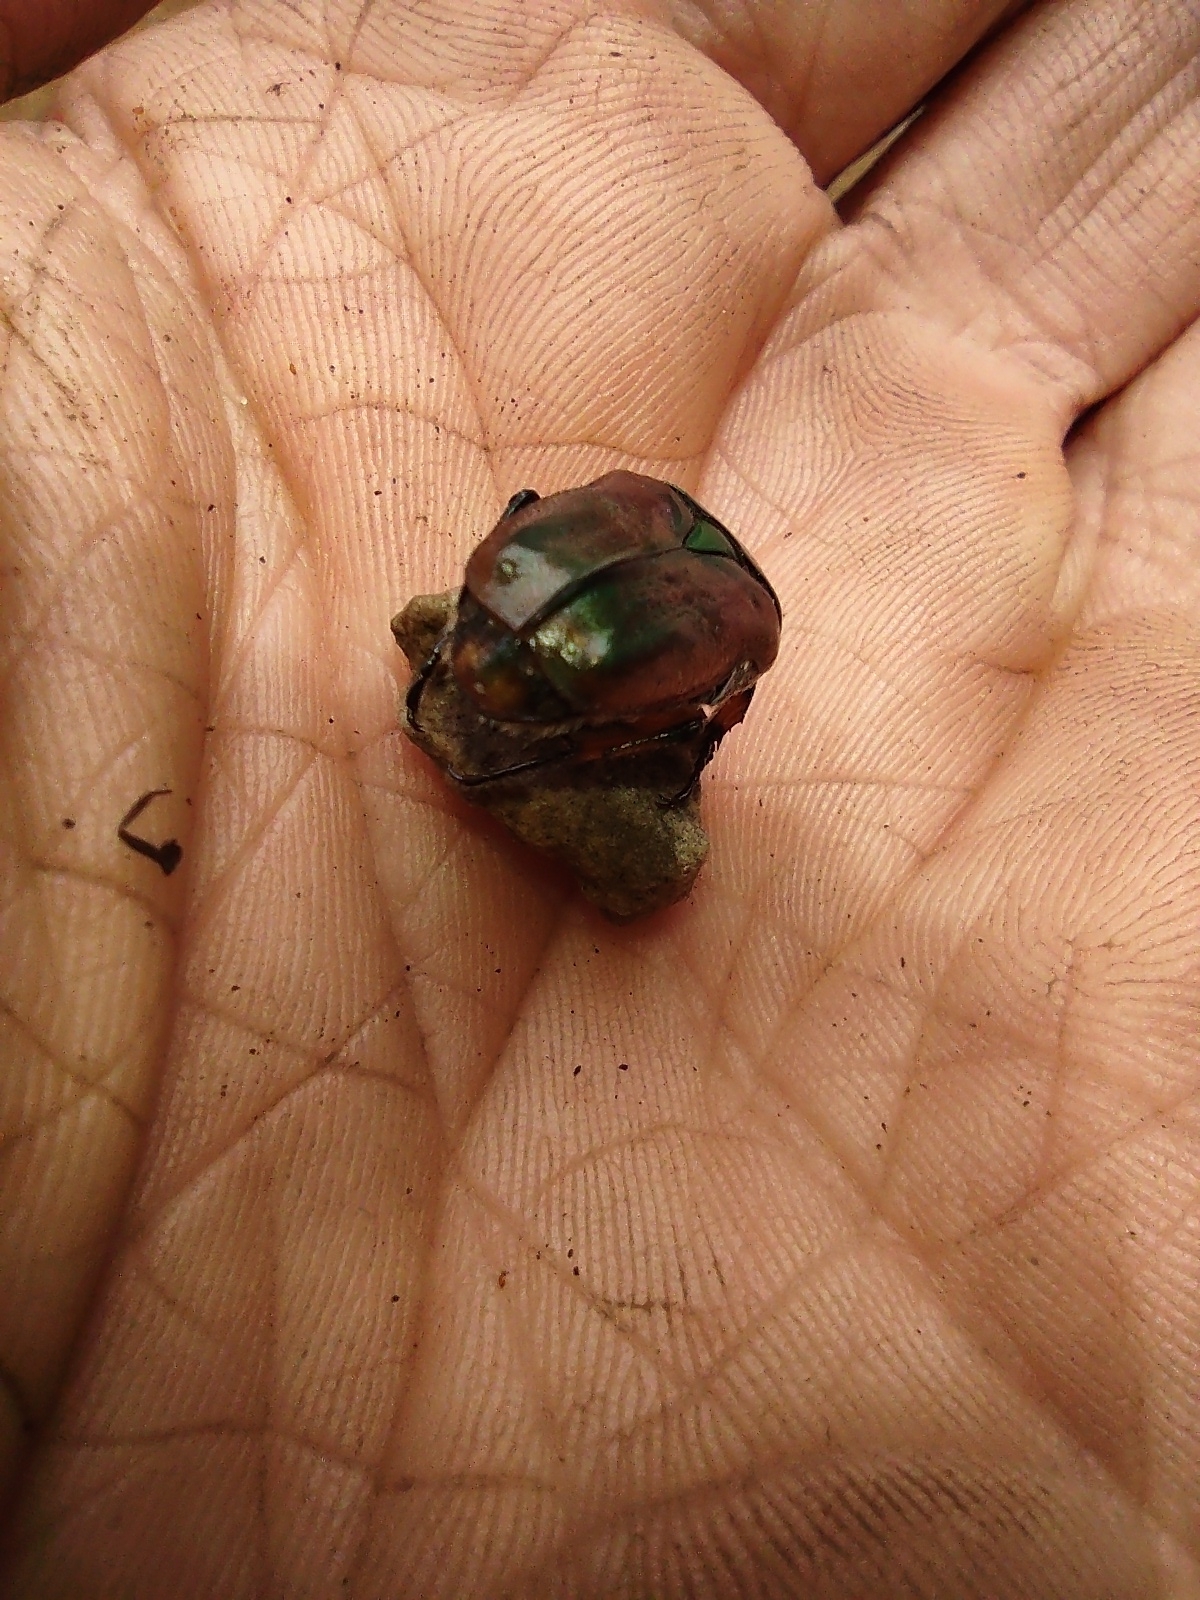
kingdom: Animalia
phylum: Arthropoda
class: Insecta
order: Coleoptera
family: Scarabaeidae
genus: Euphoria
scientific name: Euphoria fulgida
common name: Emerald euphoria
